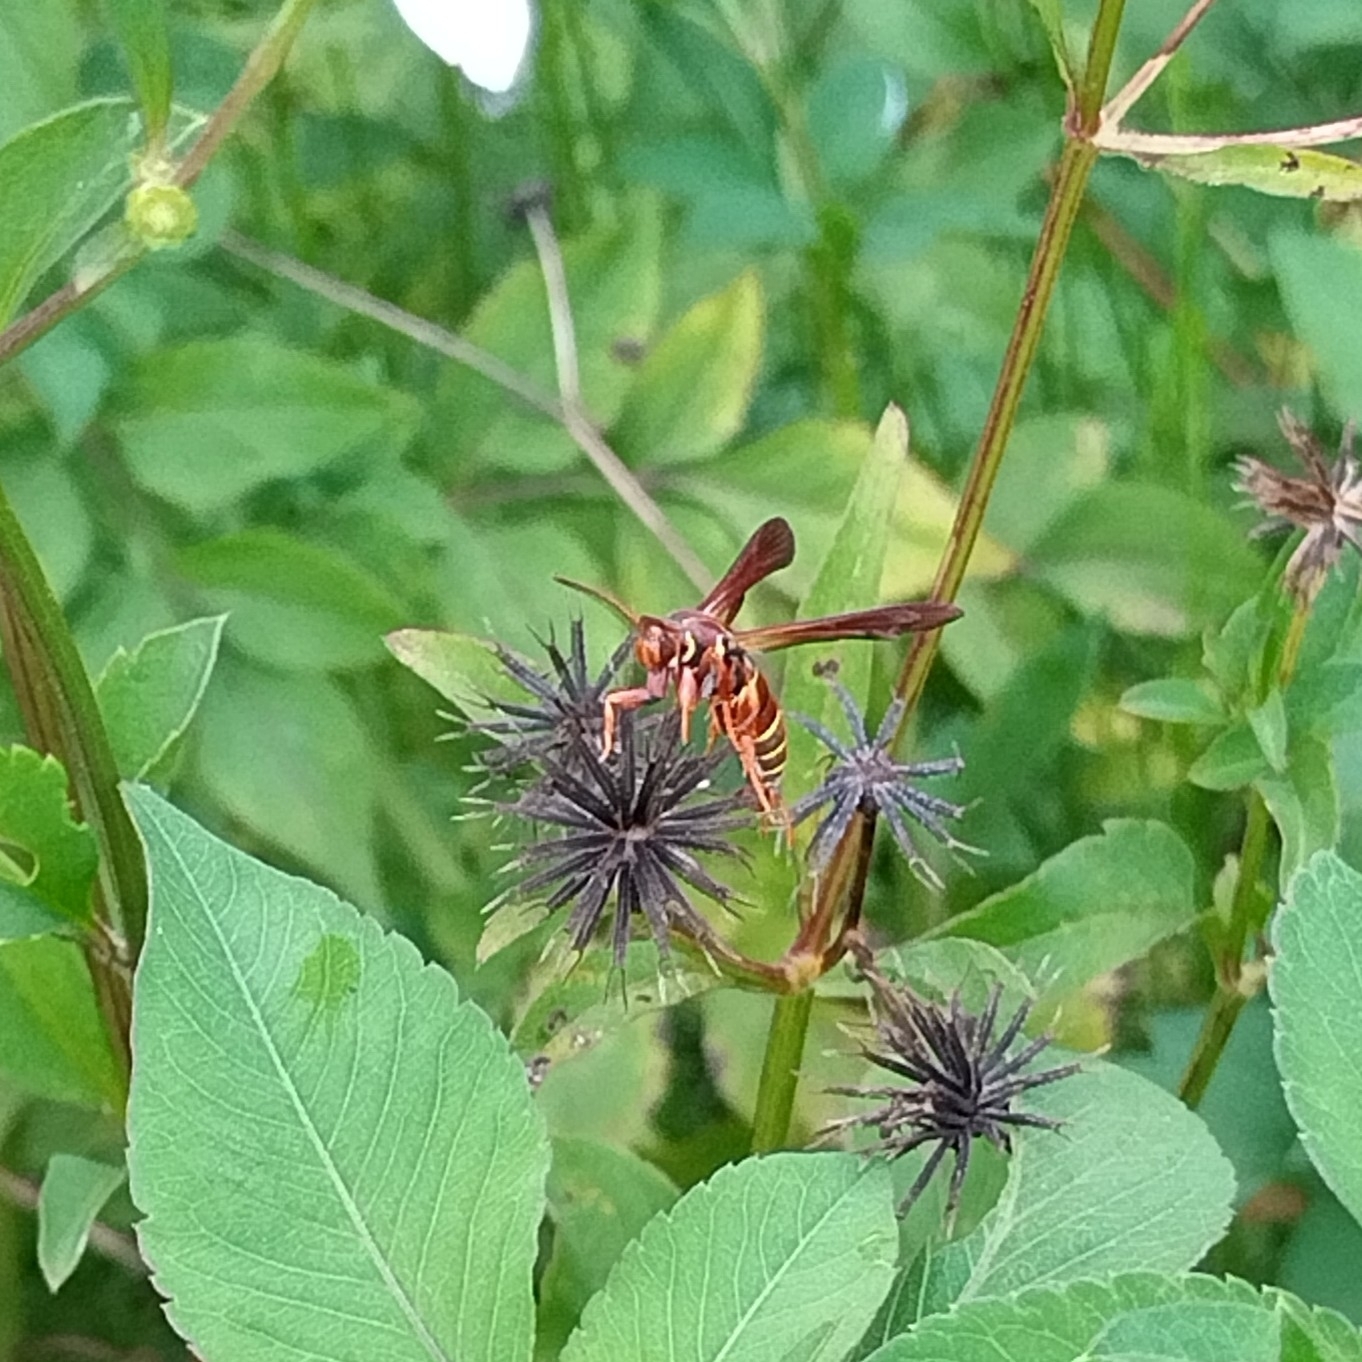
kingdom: Animalia
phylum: Arthropoda
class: Insecta
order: Lepidoptera
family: Sesiidae
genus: Vitacea
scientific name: Vitacea polistiformis
